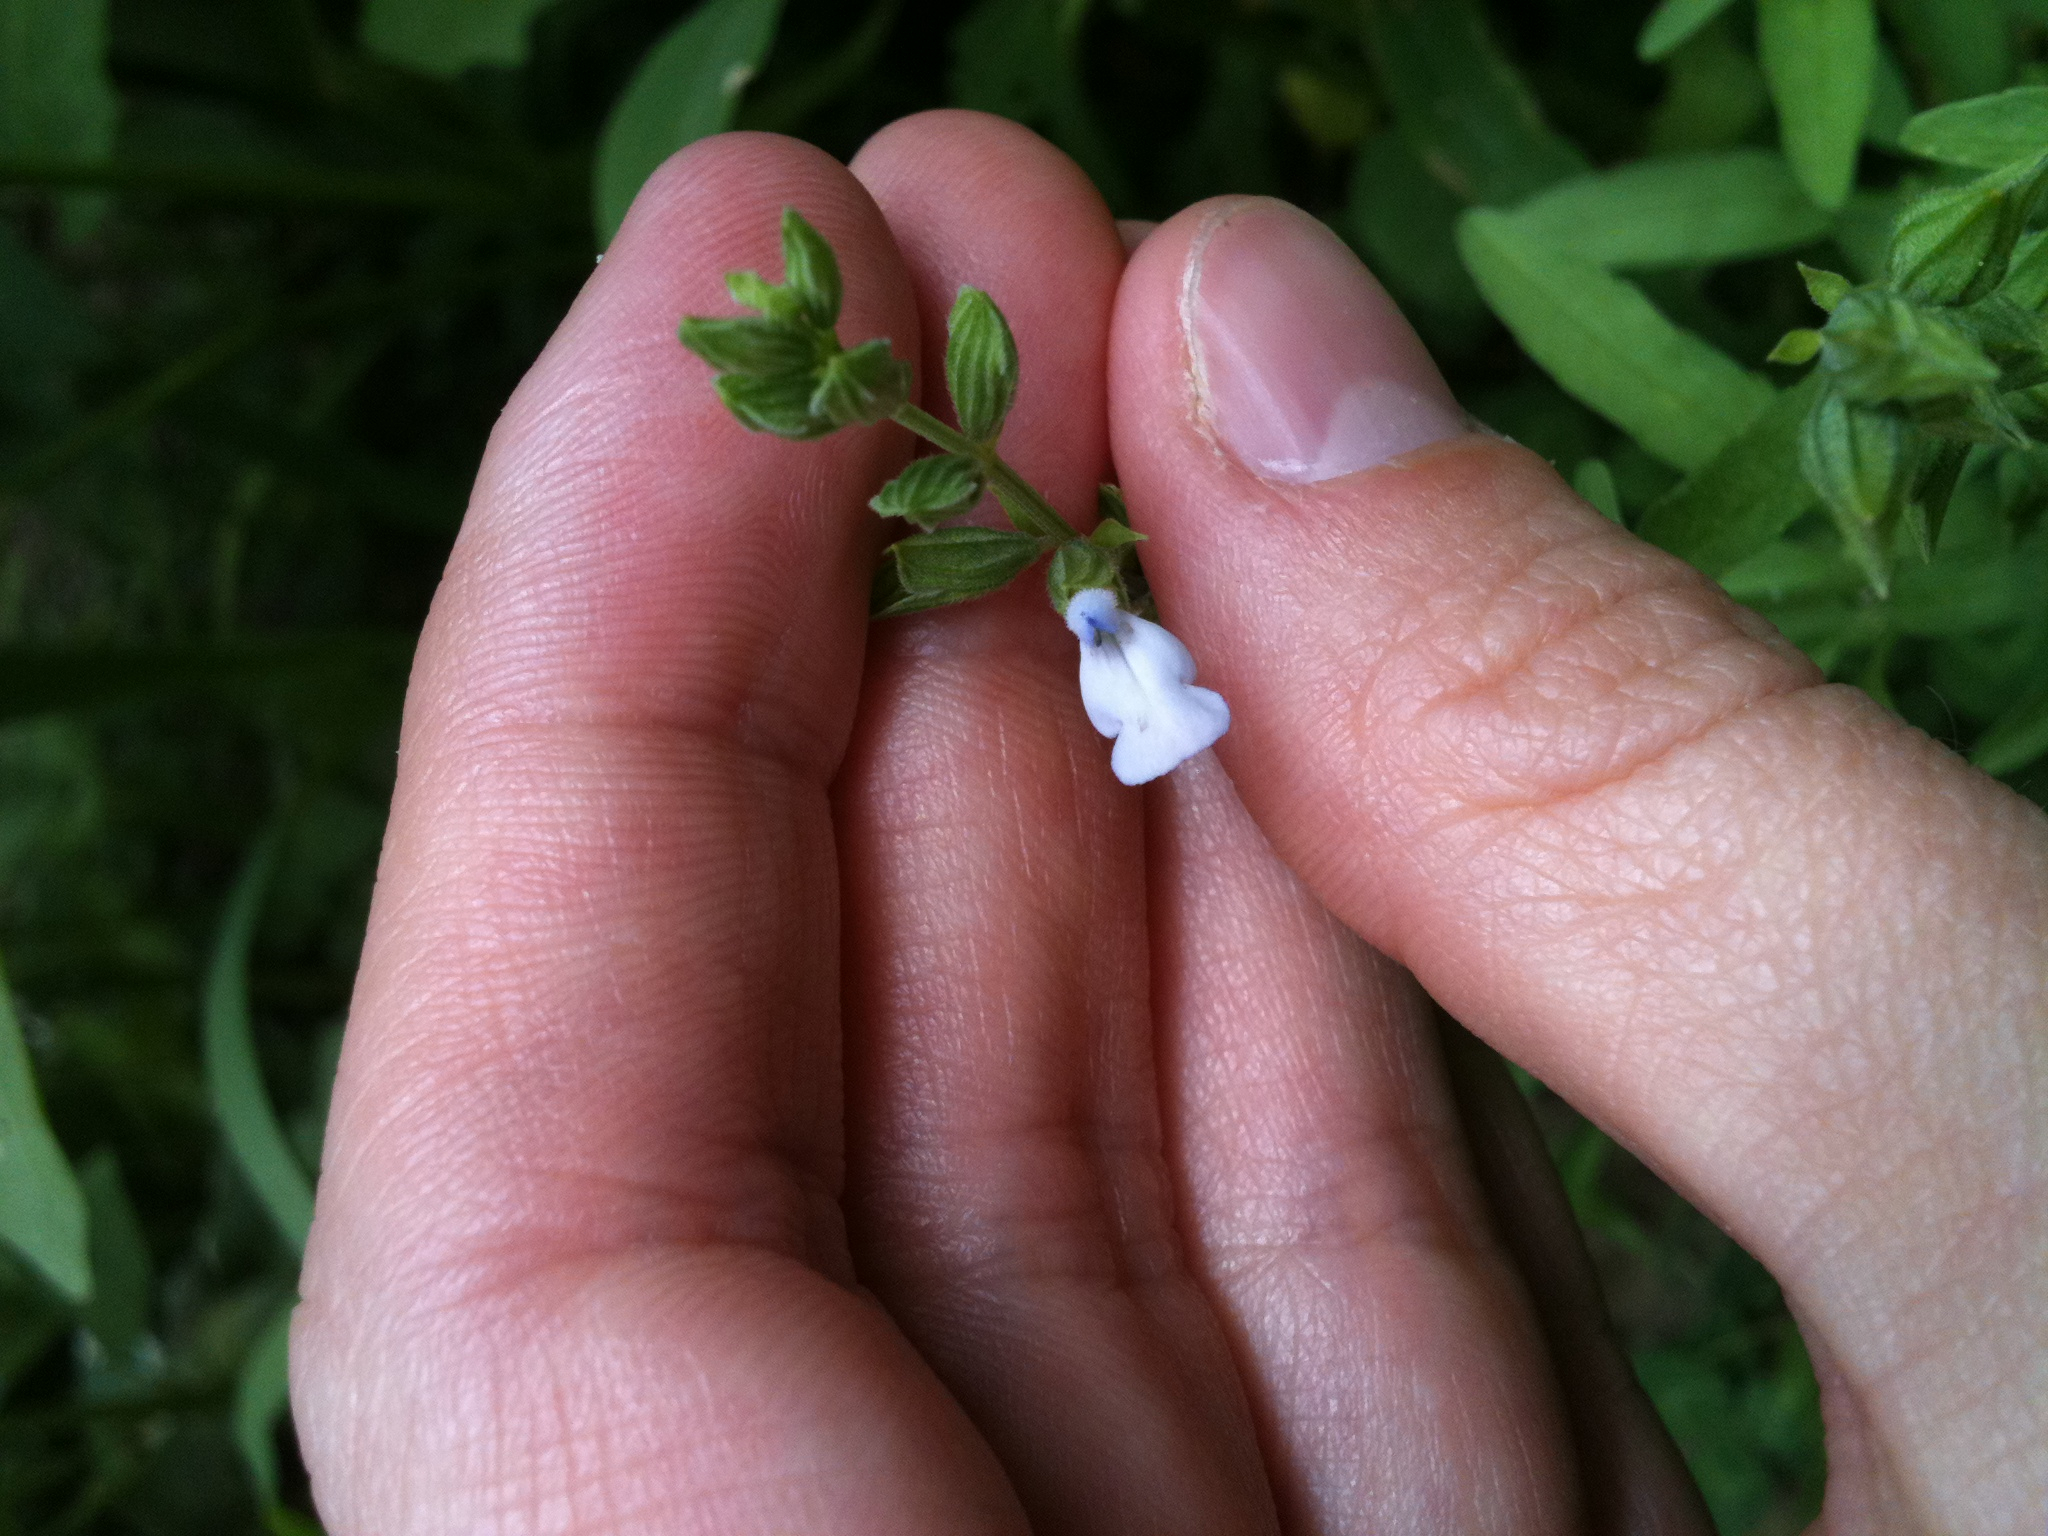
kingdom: Plantae
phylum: Tracheophyta
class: Magnoliopsida
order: Lamiales
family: Lamiaceae
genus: Salvia
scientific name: Salvia reflexa
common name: Mintweed
